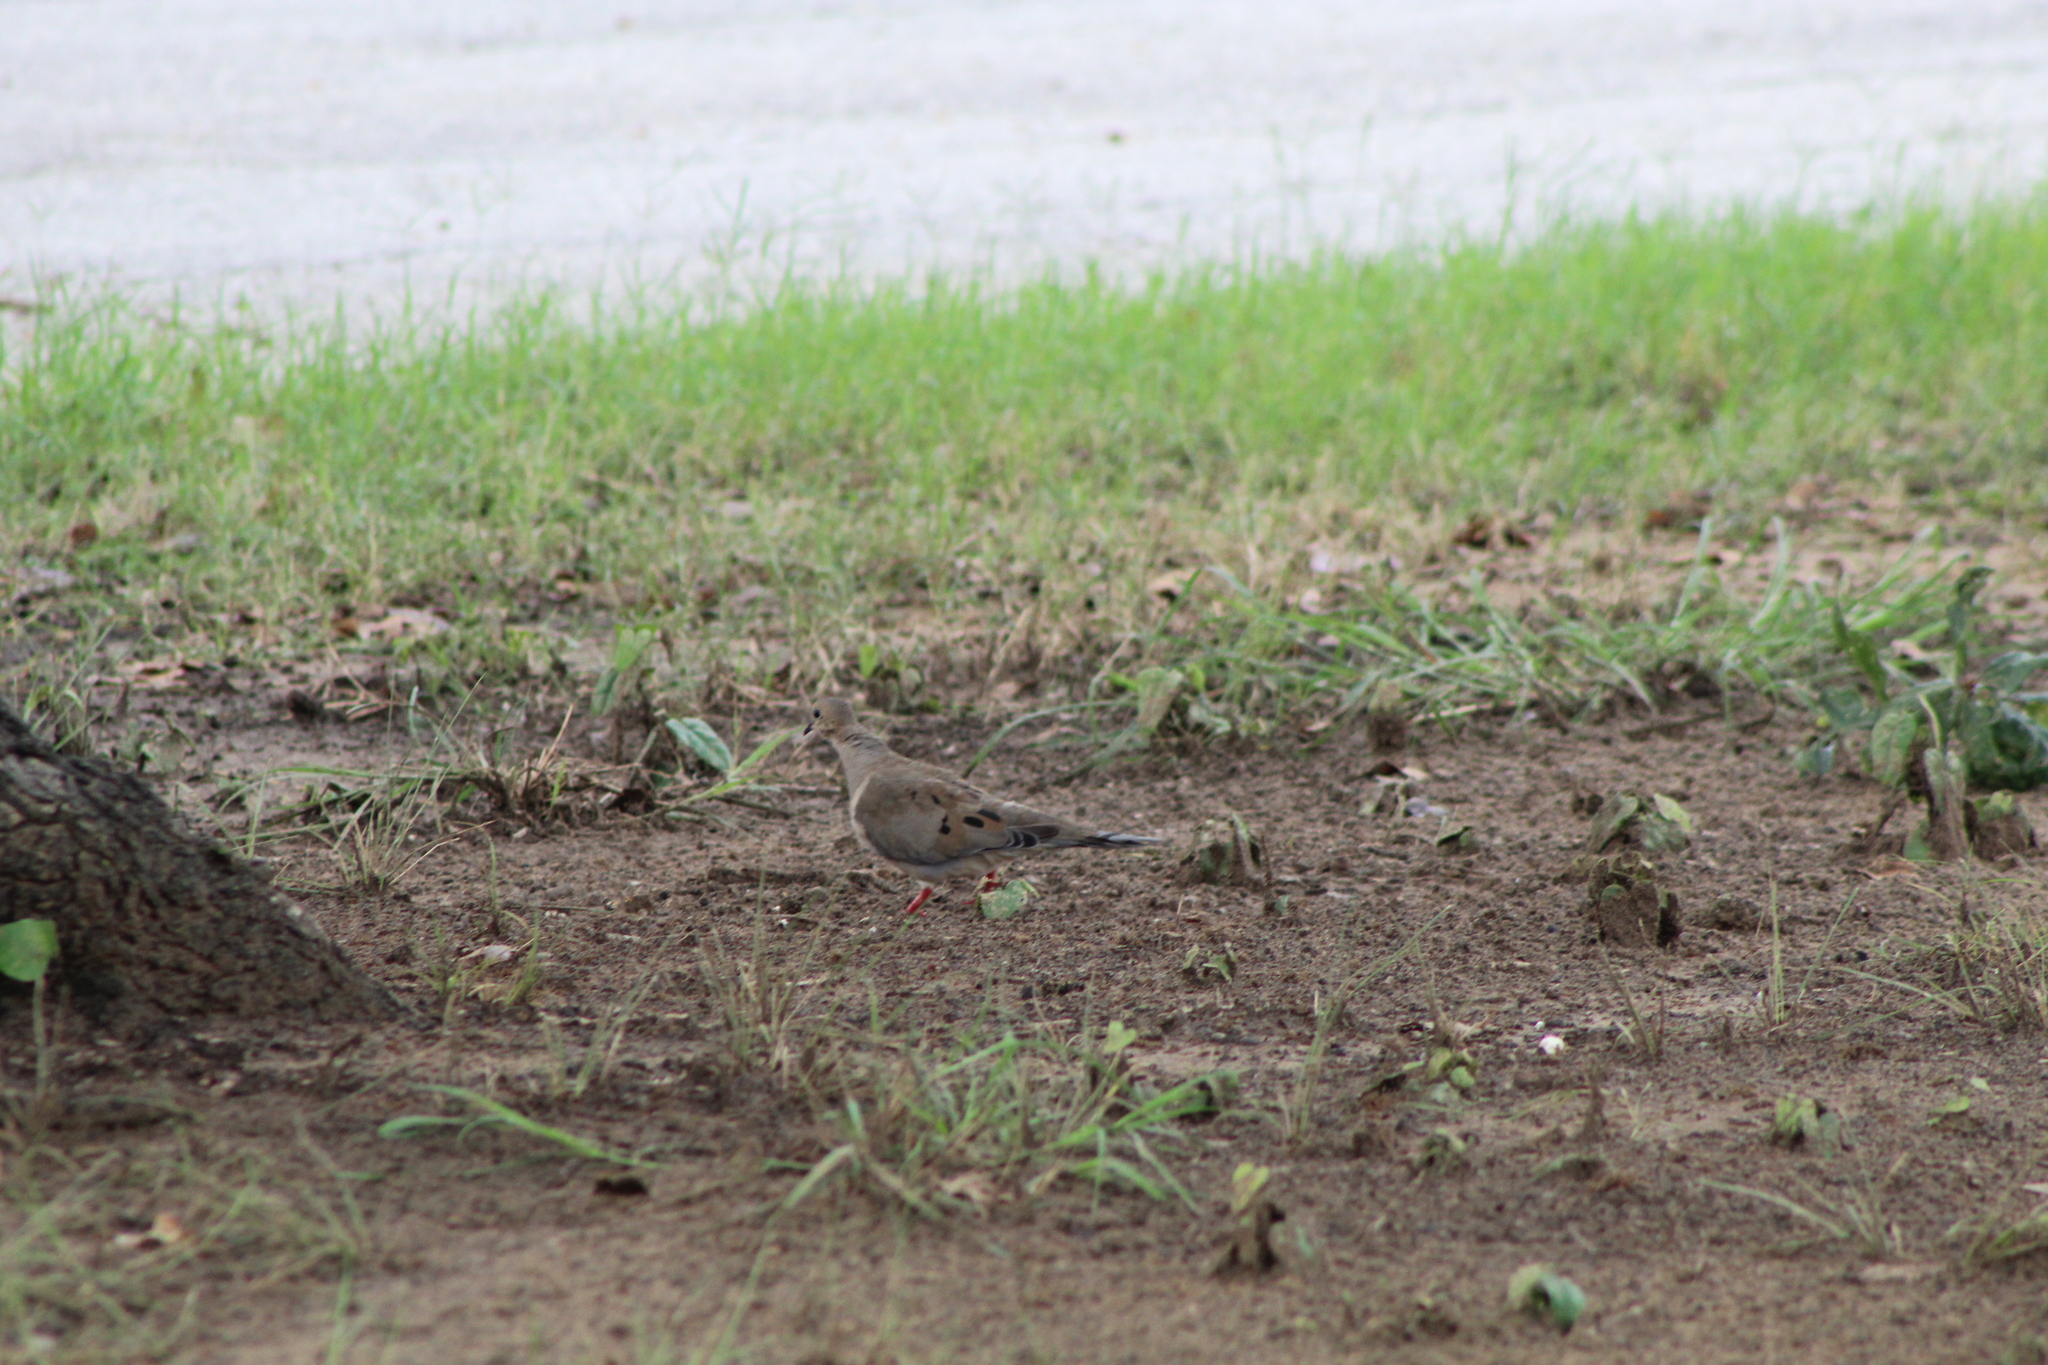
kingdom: Animalia
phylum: Chordata
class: Aves
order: Columbiformes
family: Columbidae
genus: Zenaida
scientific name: Zenaida macroura
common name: Mourning dove
